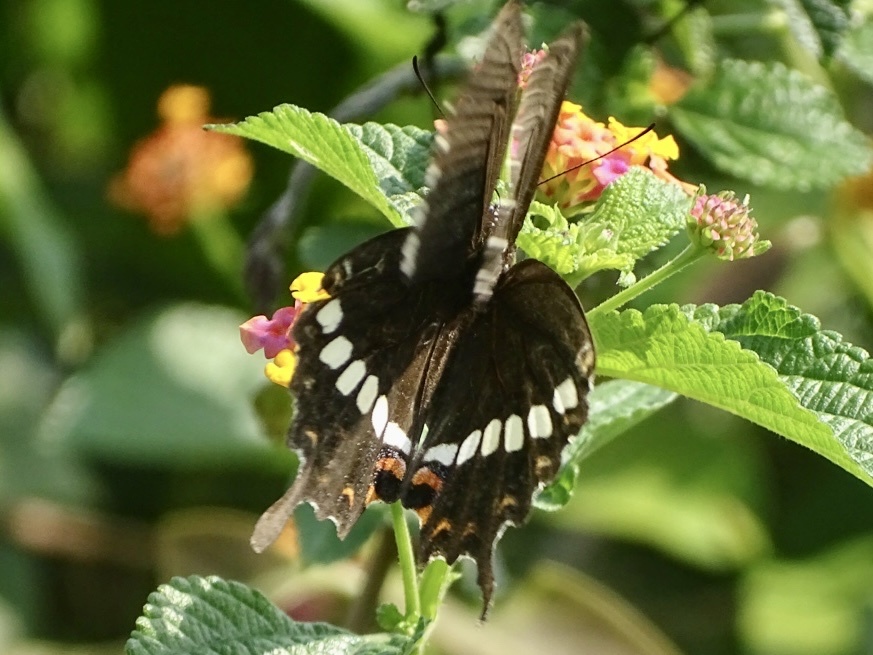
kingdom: Animalia
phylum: Arthropoda
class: Insecta
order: Lepidoptera
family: Papilionidae
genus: Papilio
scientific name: Papilio polytes
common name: Common mormon
